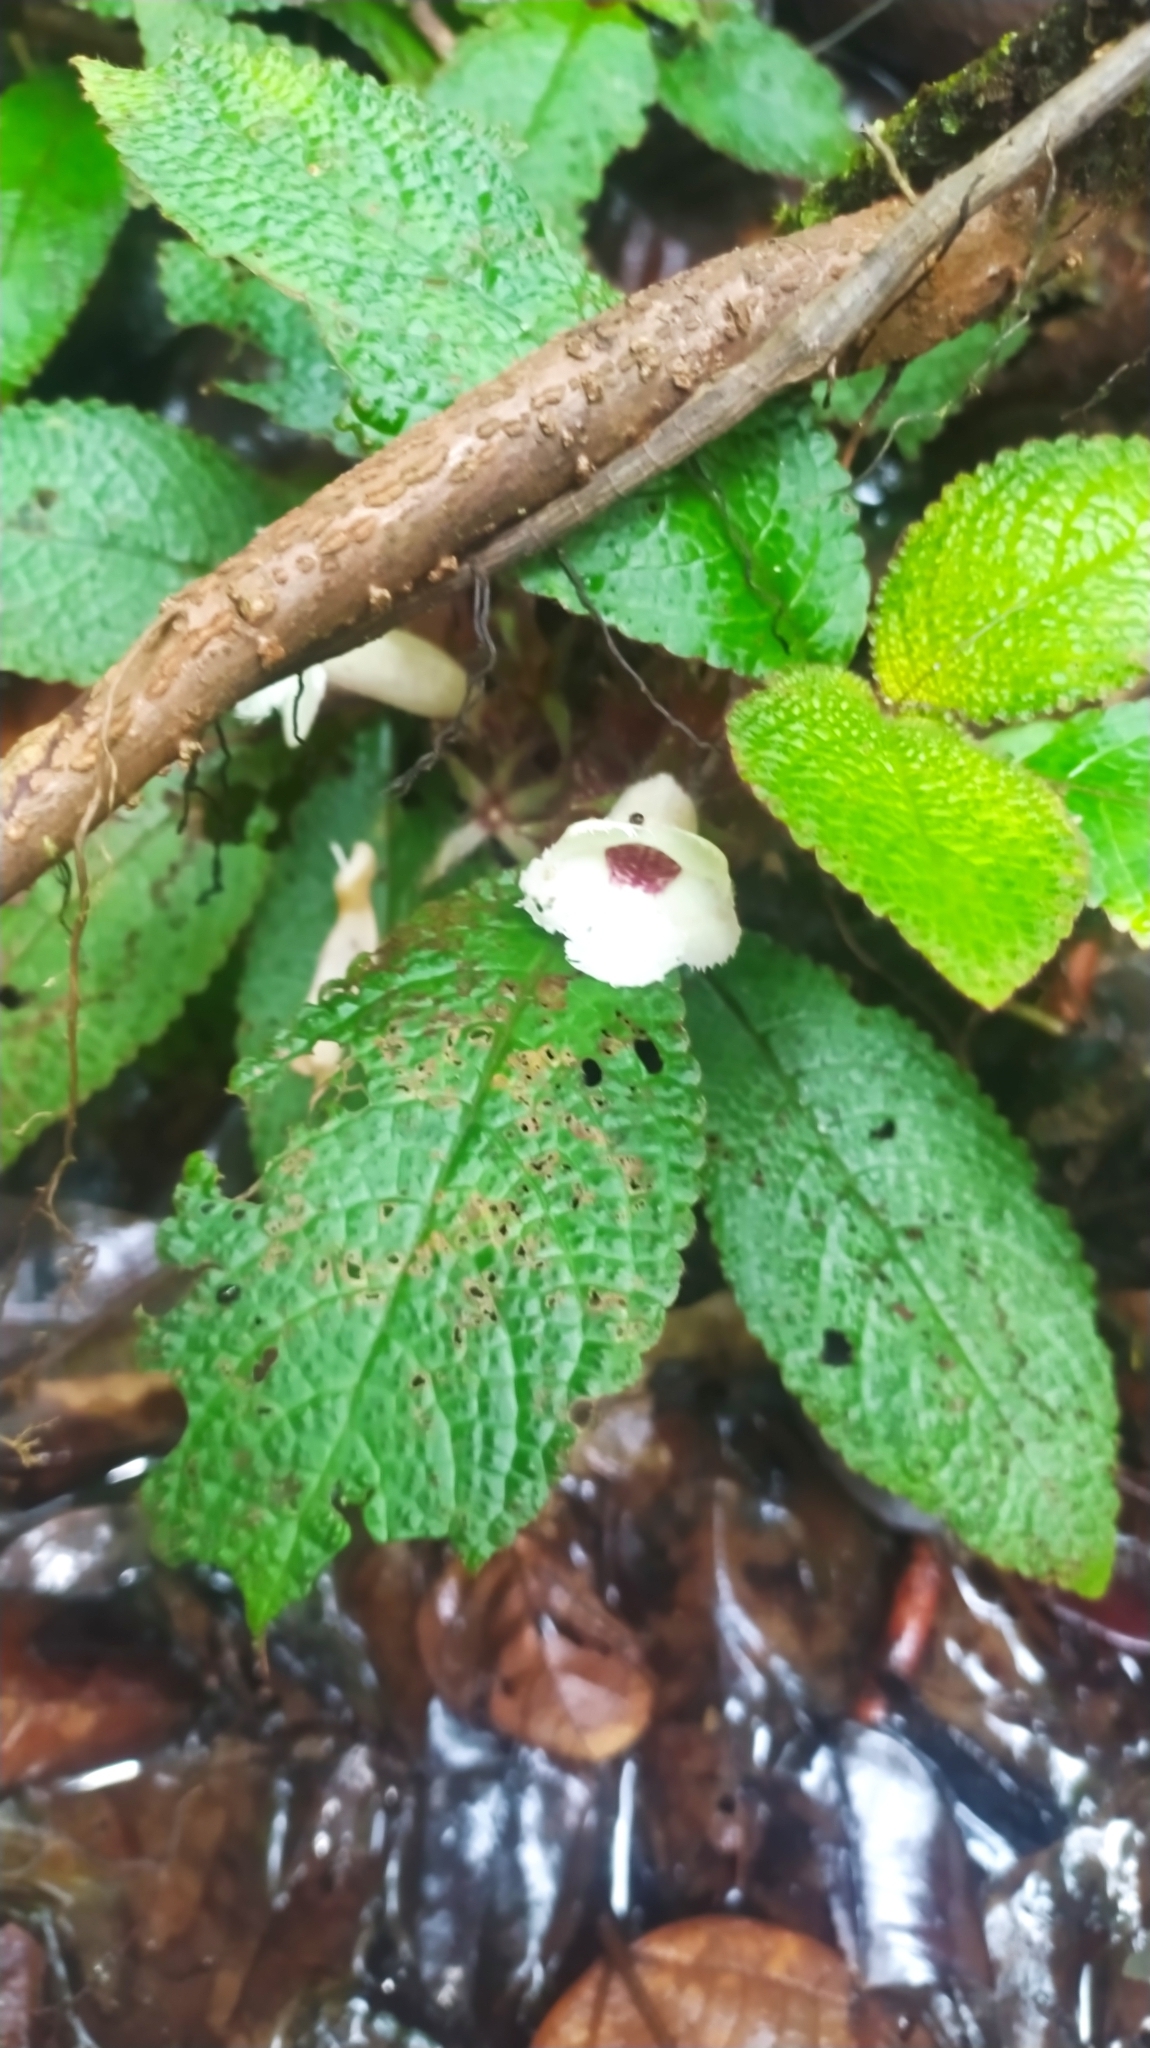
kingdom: Plantae
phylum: Tracheophyta
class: Magnoliopsida
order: Lamiales
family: Gesneriaceae
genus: Nautilocalyx
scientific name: Nautilocalyx
